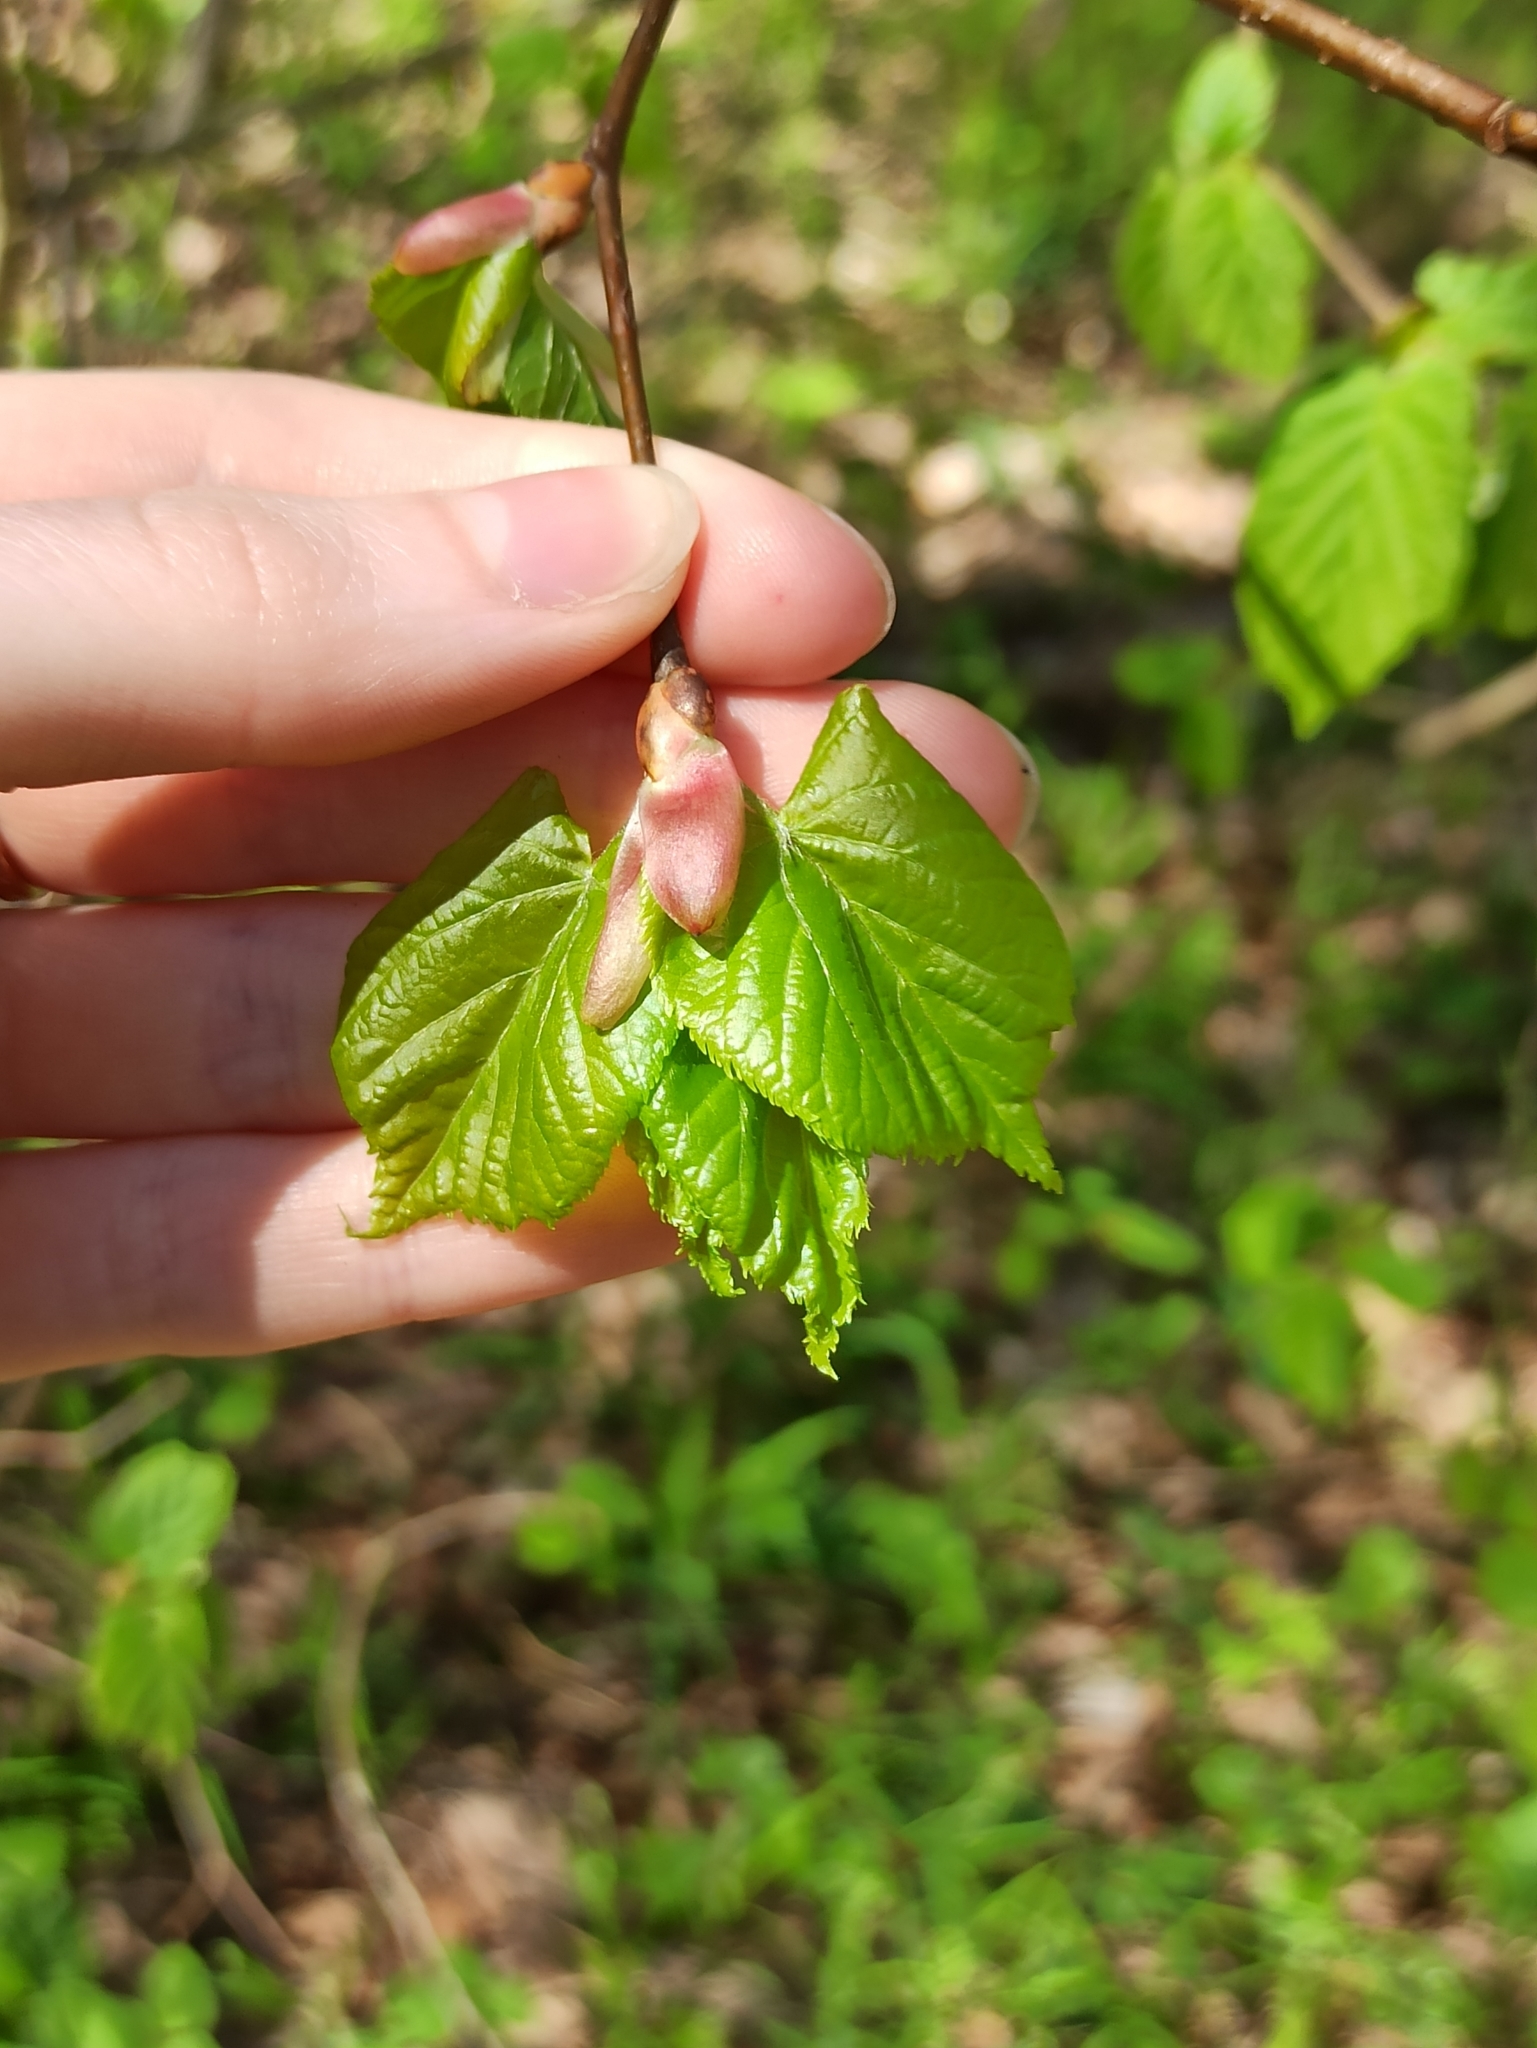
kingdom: Plantae
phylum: Tracheophyta
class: Magnoliopsida
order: Malvales
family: Malvaceae
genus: Tilia
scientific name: Tilia cordata
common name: Small-leaved lime
